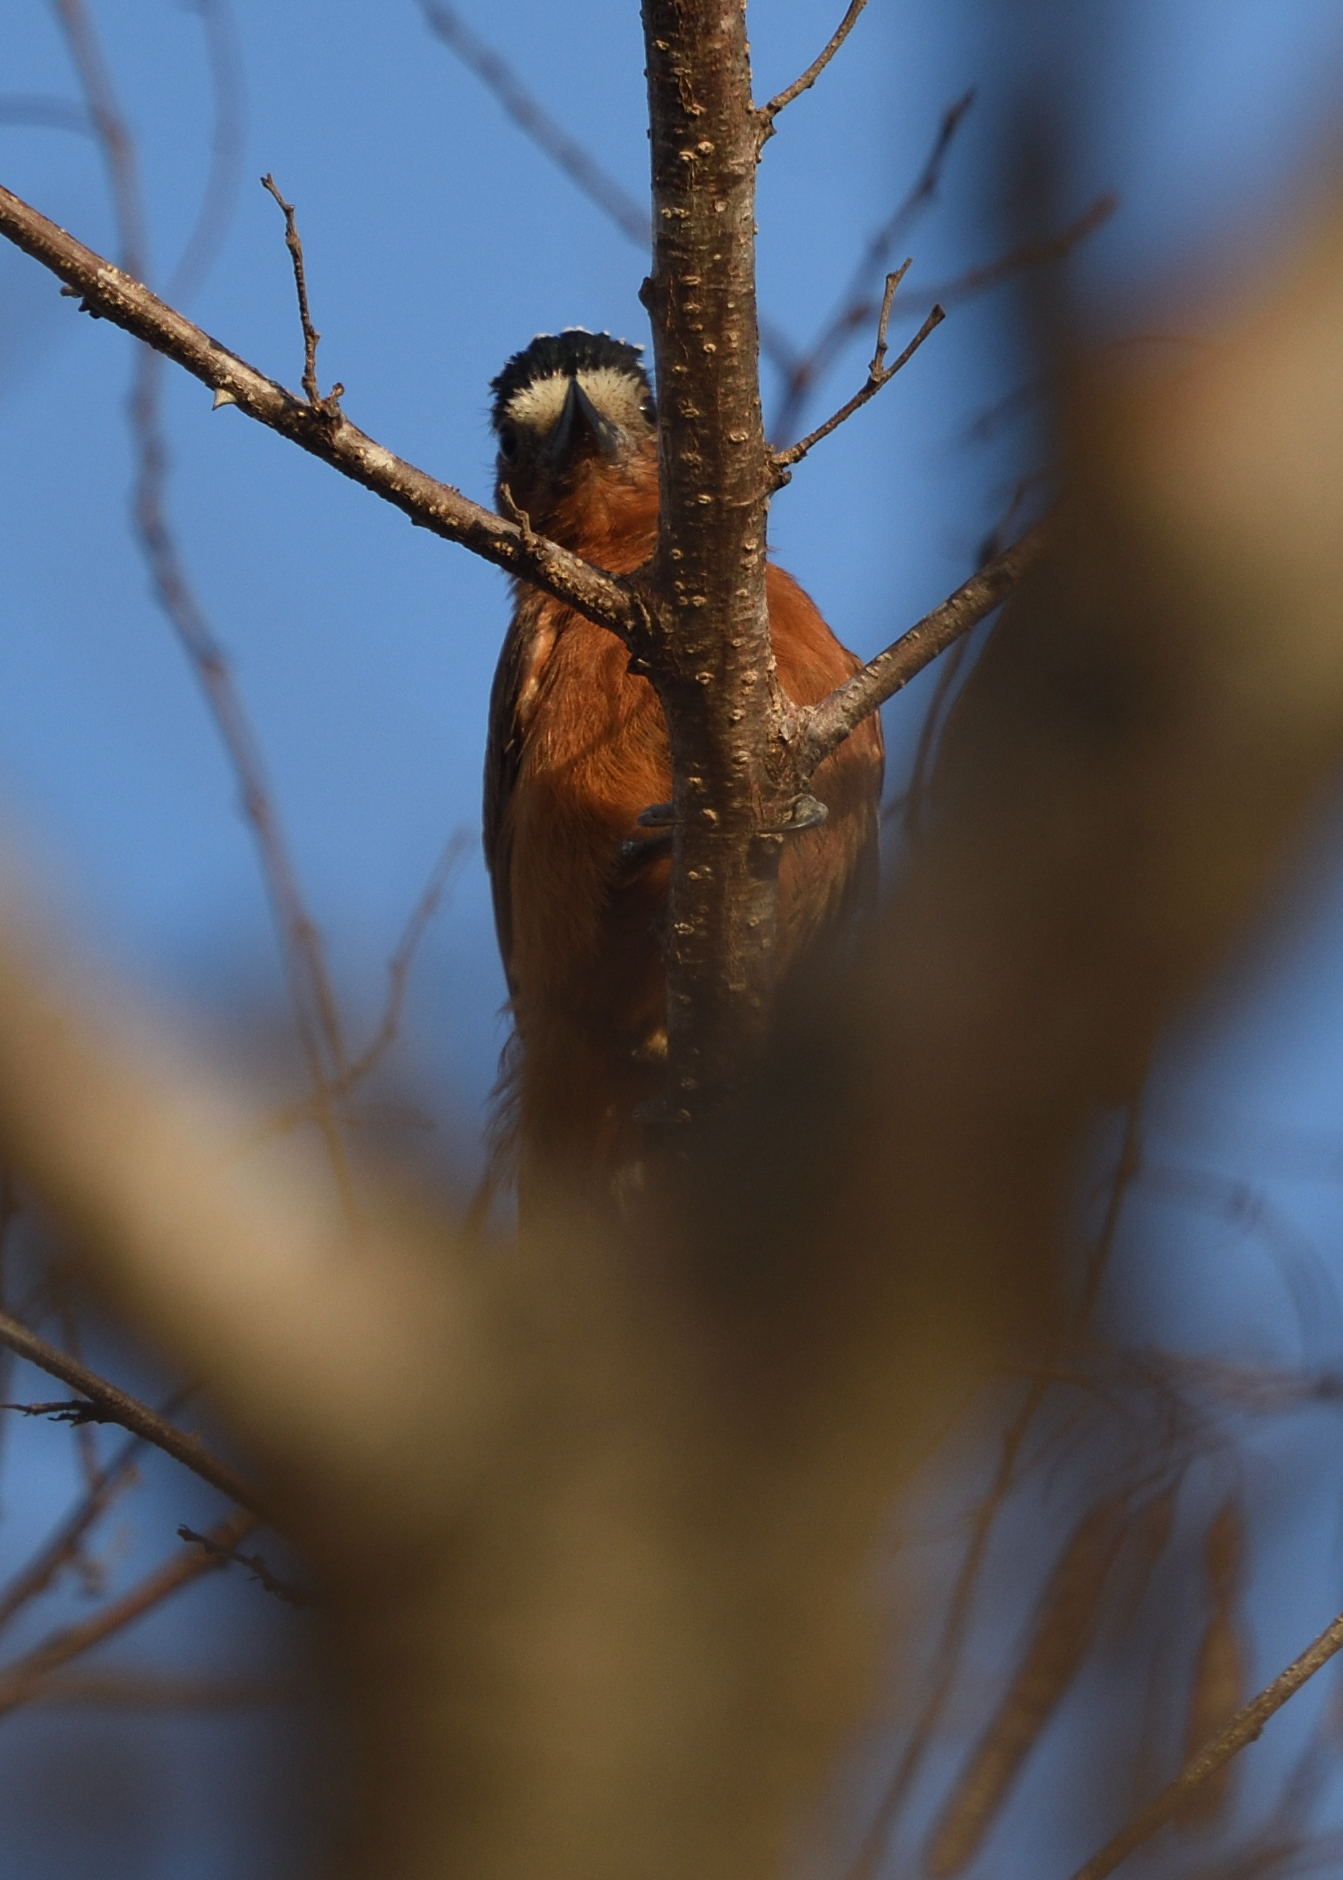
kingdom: Animalia
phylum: Chordata
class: Aves
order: Piciformes
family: Picidae
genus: Picumnus
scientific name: Picumnus cinnamomeus
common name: Chestnut piculet
